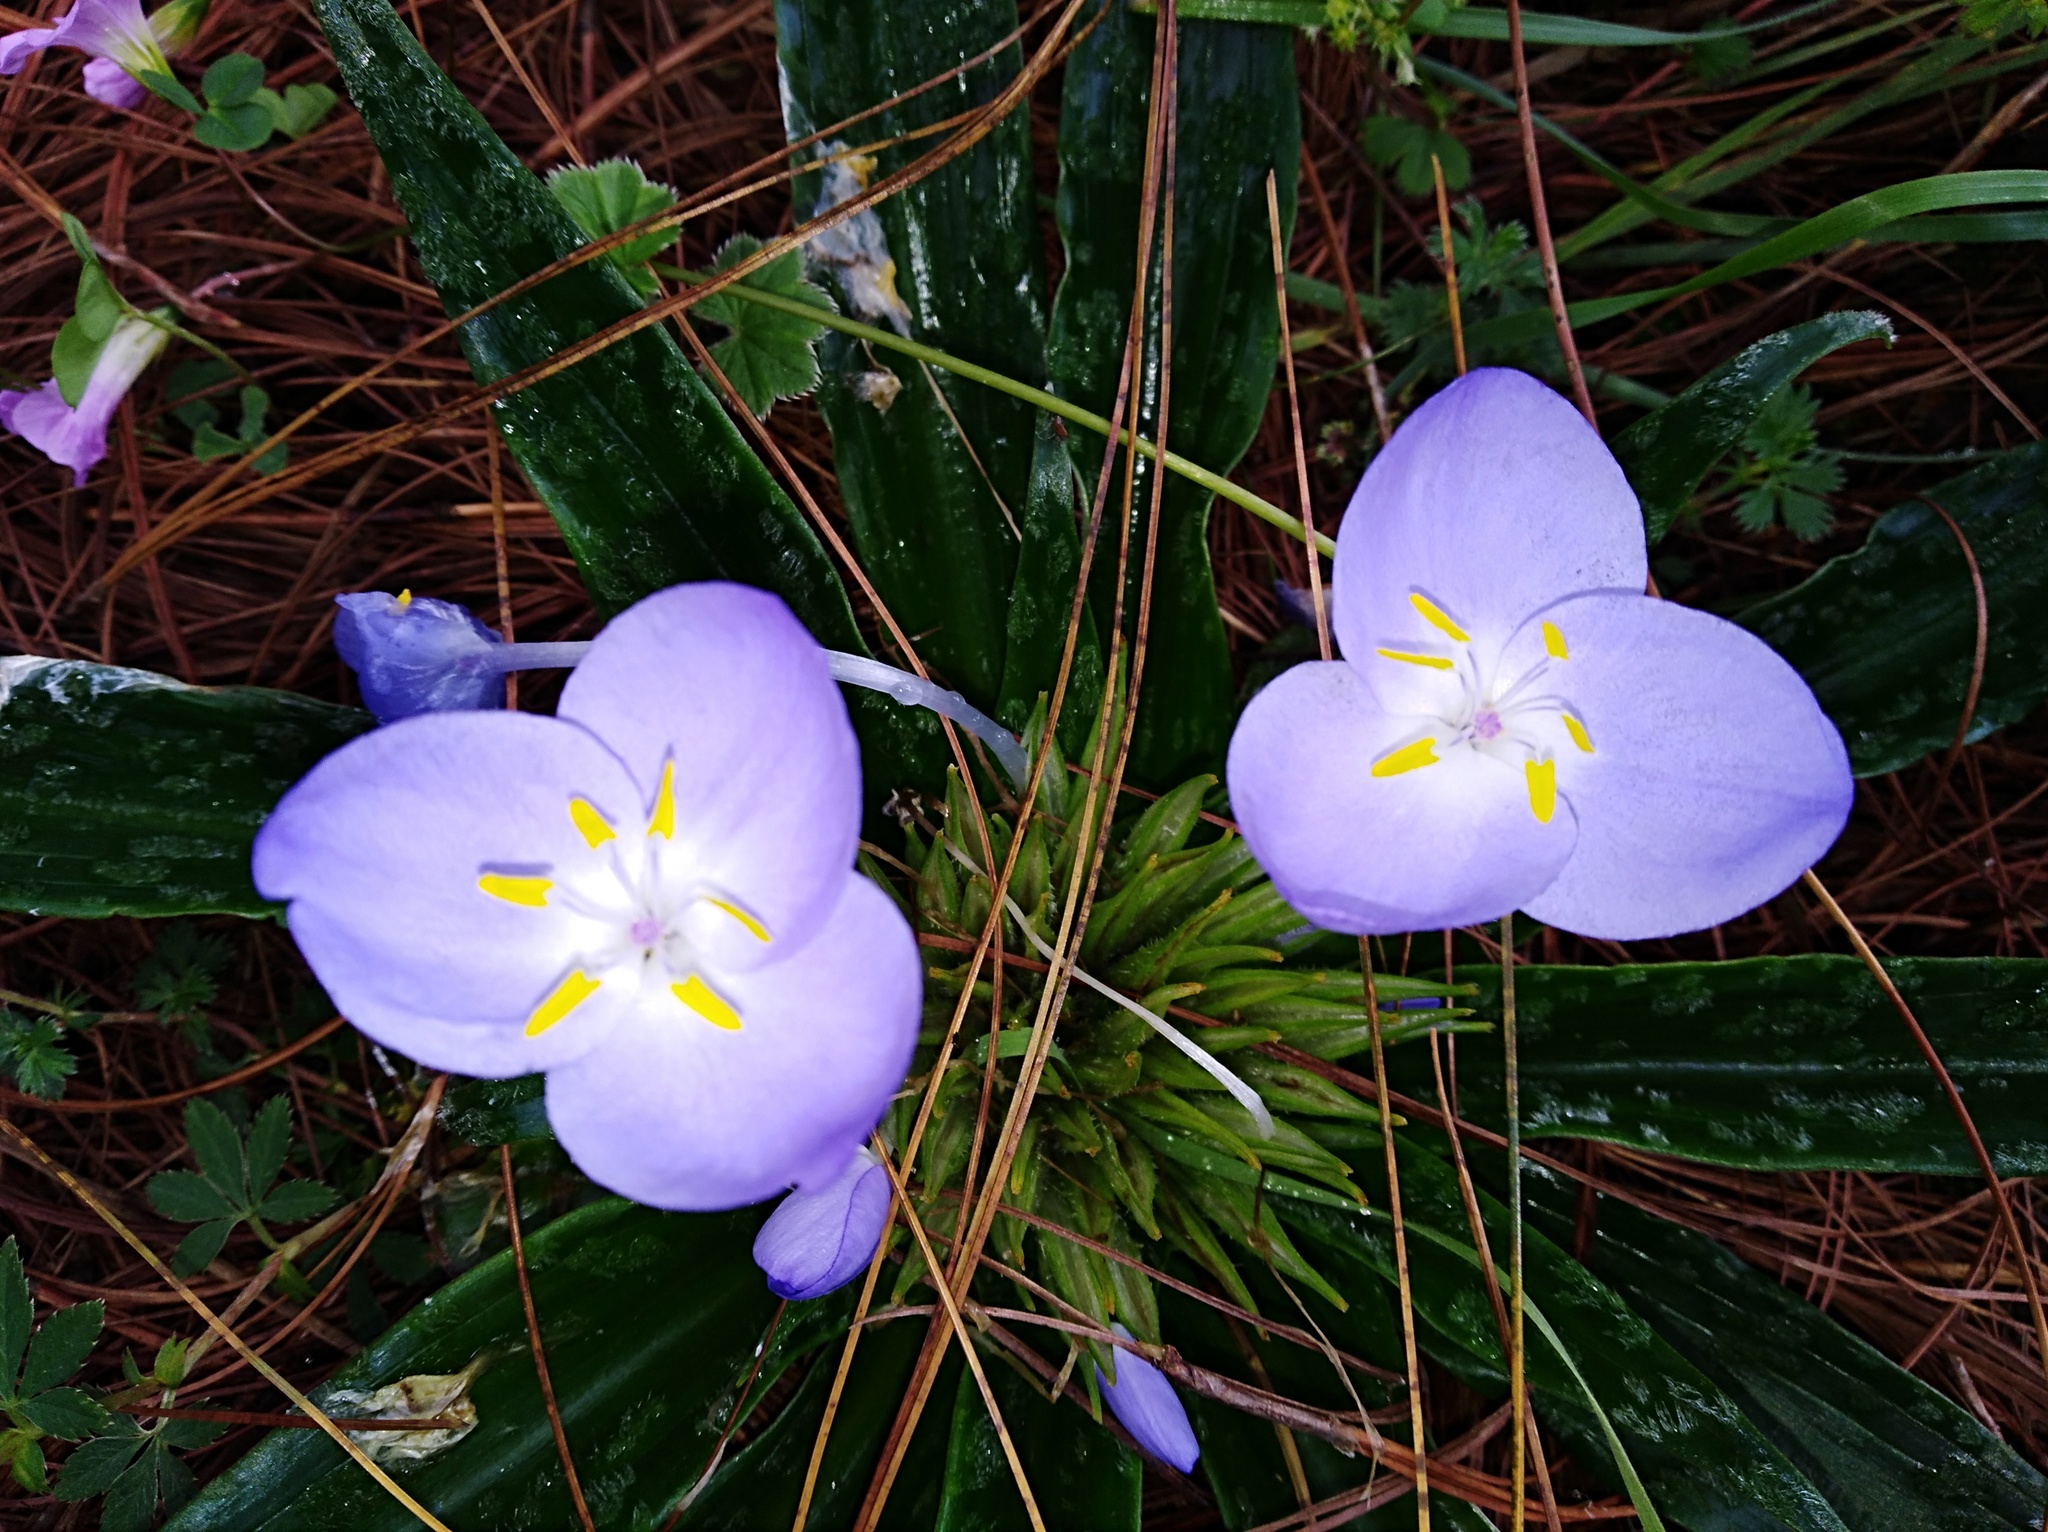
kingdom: Plantae
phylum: Tracheophyta
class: Liliopsida
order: Commelinales
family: Commelinaceae
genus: Weldenia
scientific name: Weldenia volcanica
